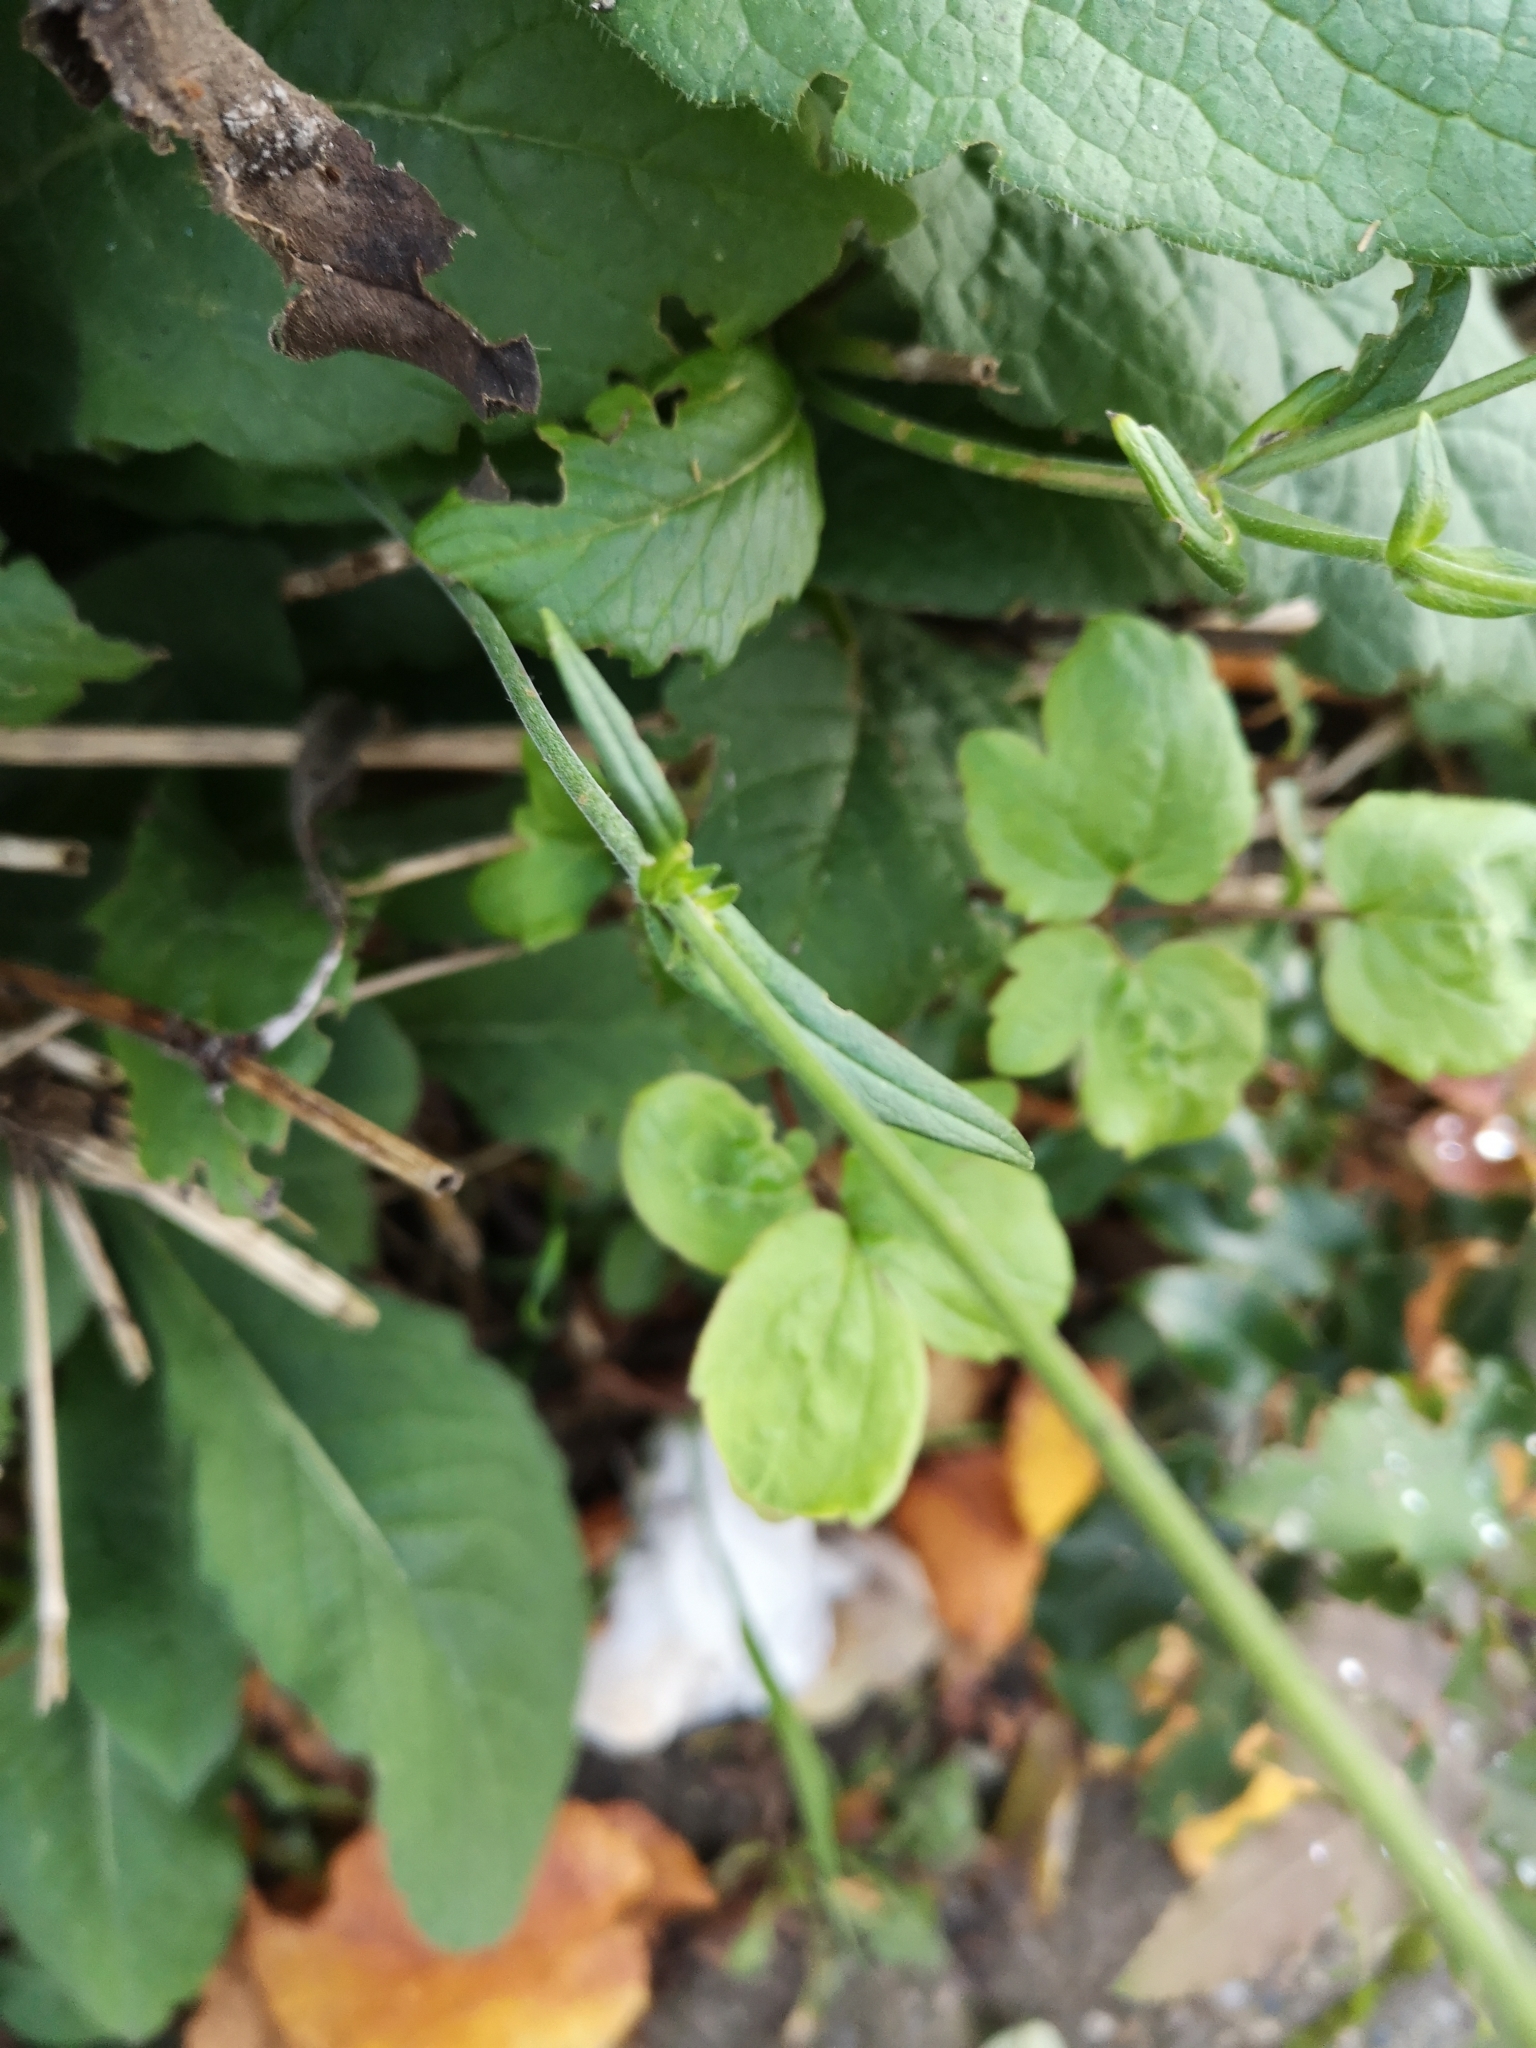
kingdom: Plantae
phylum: Tracheophyta
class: Magnoliopsida
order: Dipsacales
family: Caprifoliaceae
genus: Knautia
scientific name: Knautia dipsacifolia
